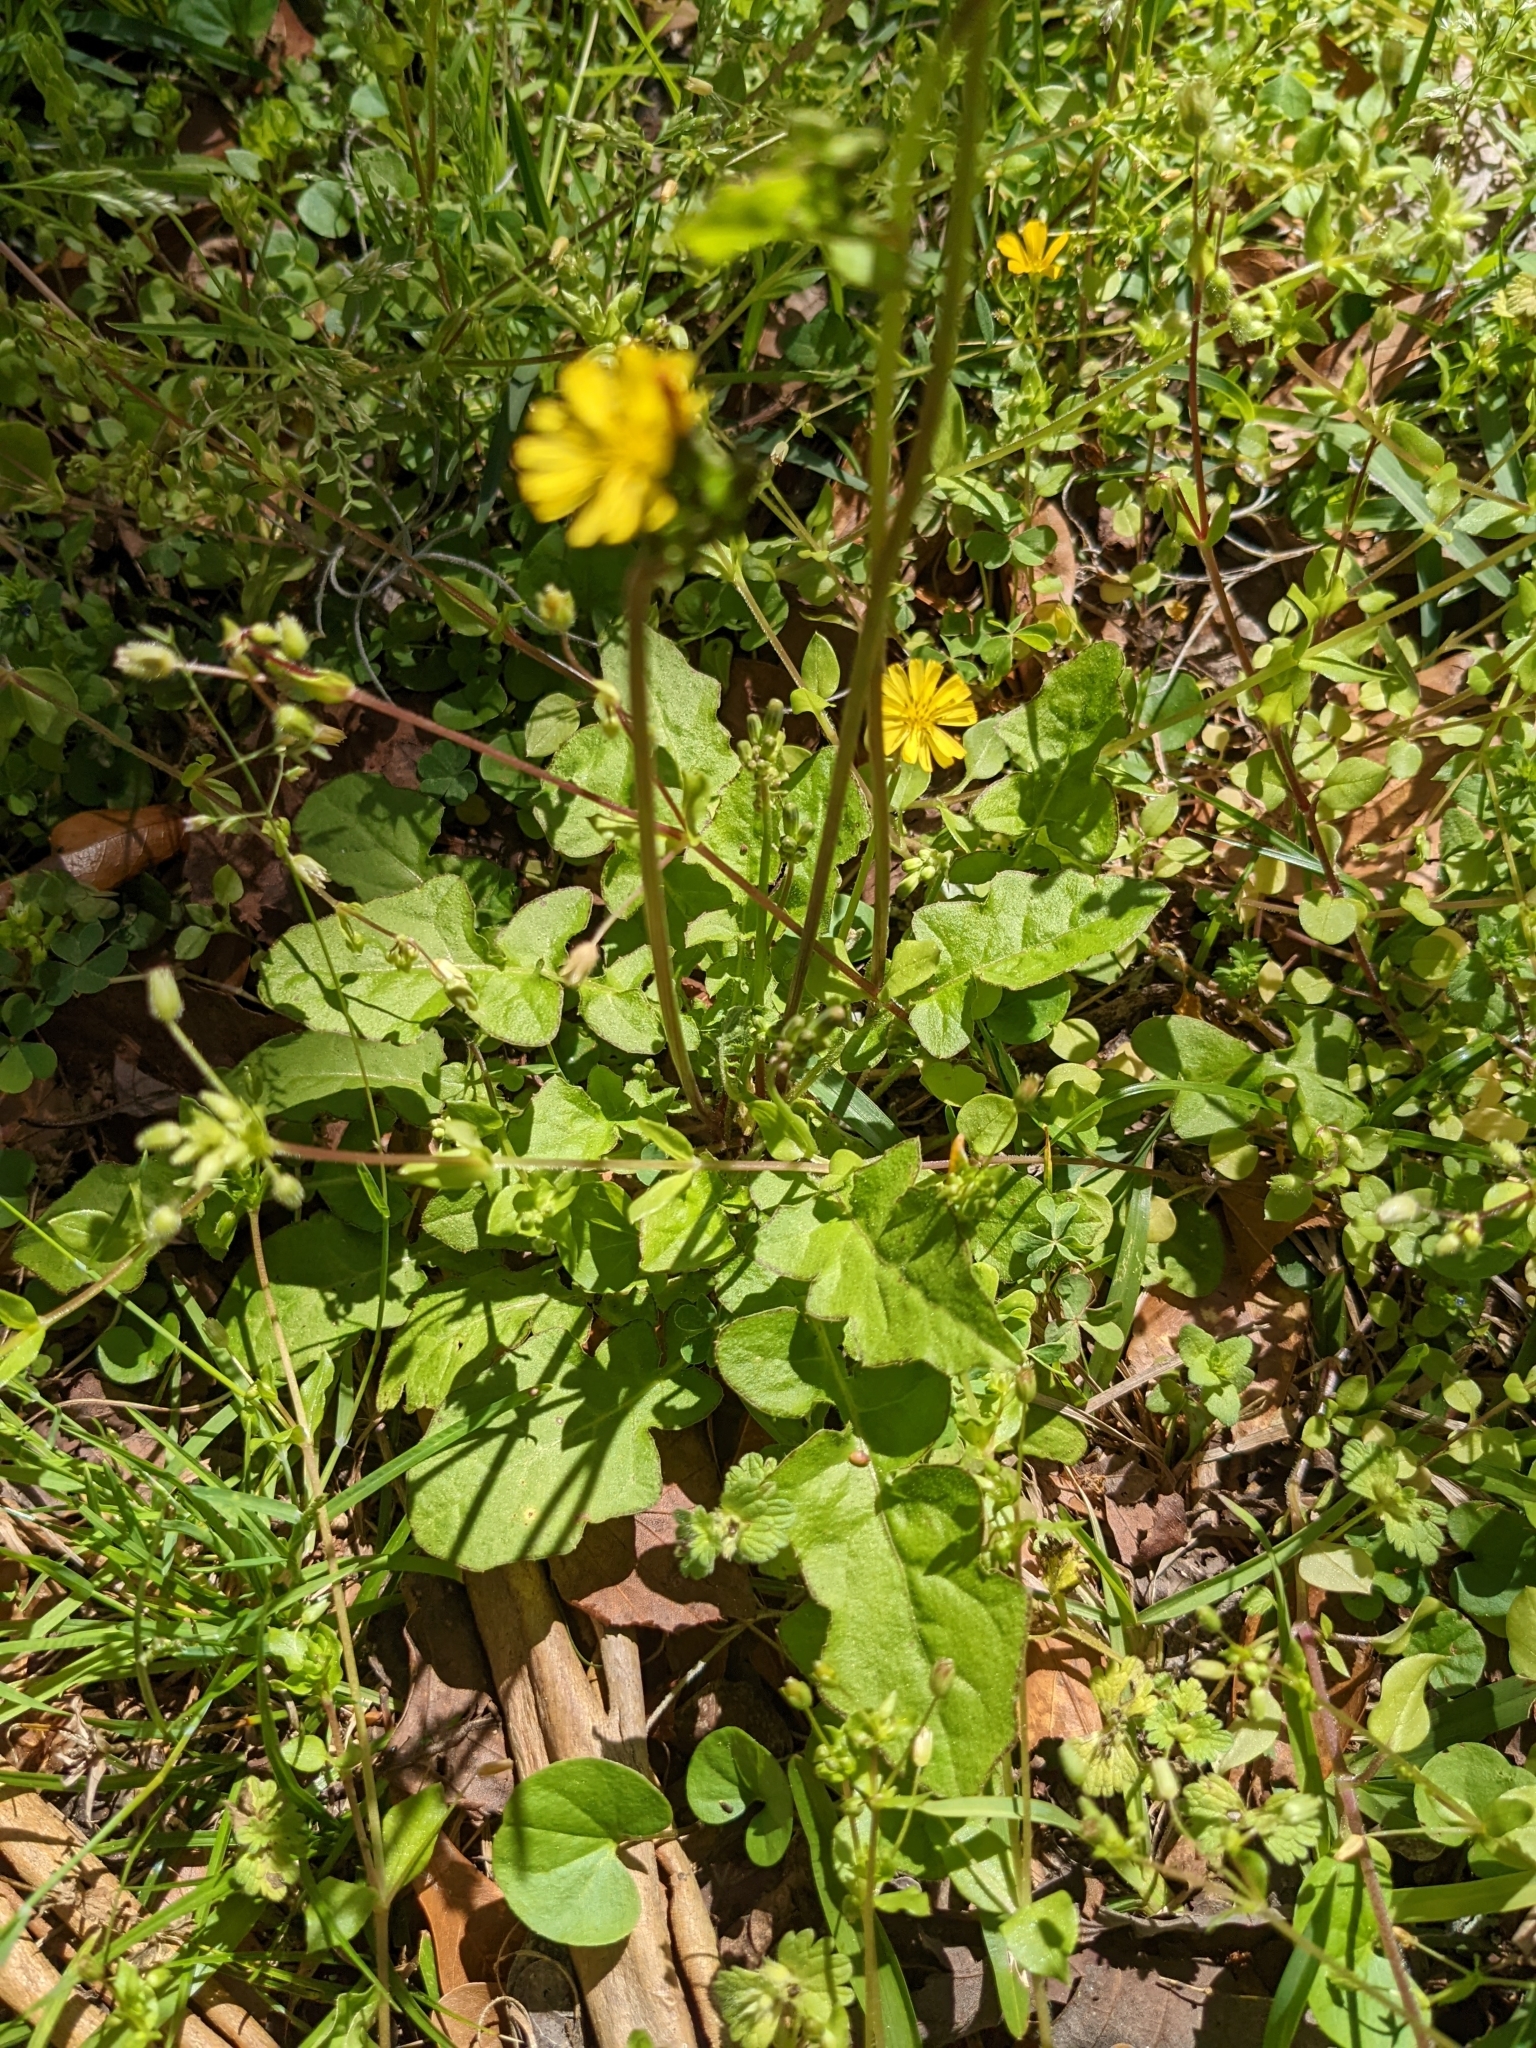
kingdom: Plantae
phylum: Tracheophyta
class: Magnoliopsida
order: Asterales
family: Asteraceae
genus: Youngia
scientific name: Youngia japonica
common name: Oriental false hawksbeard
